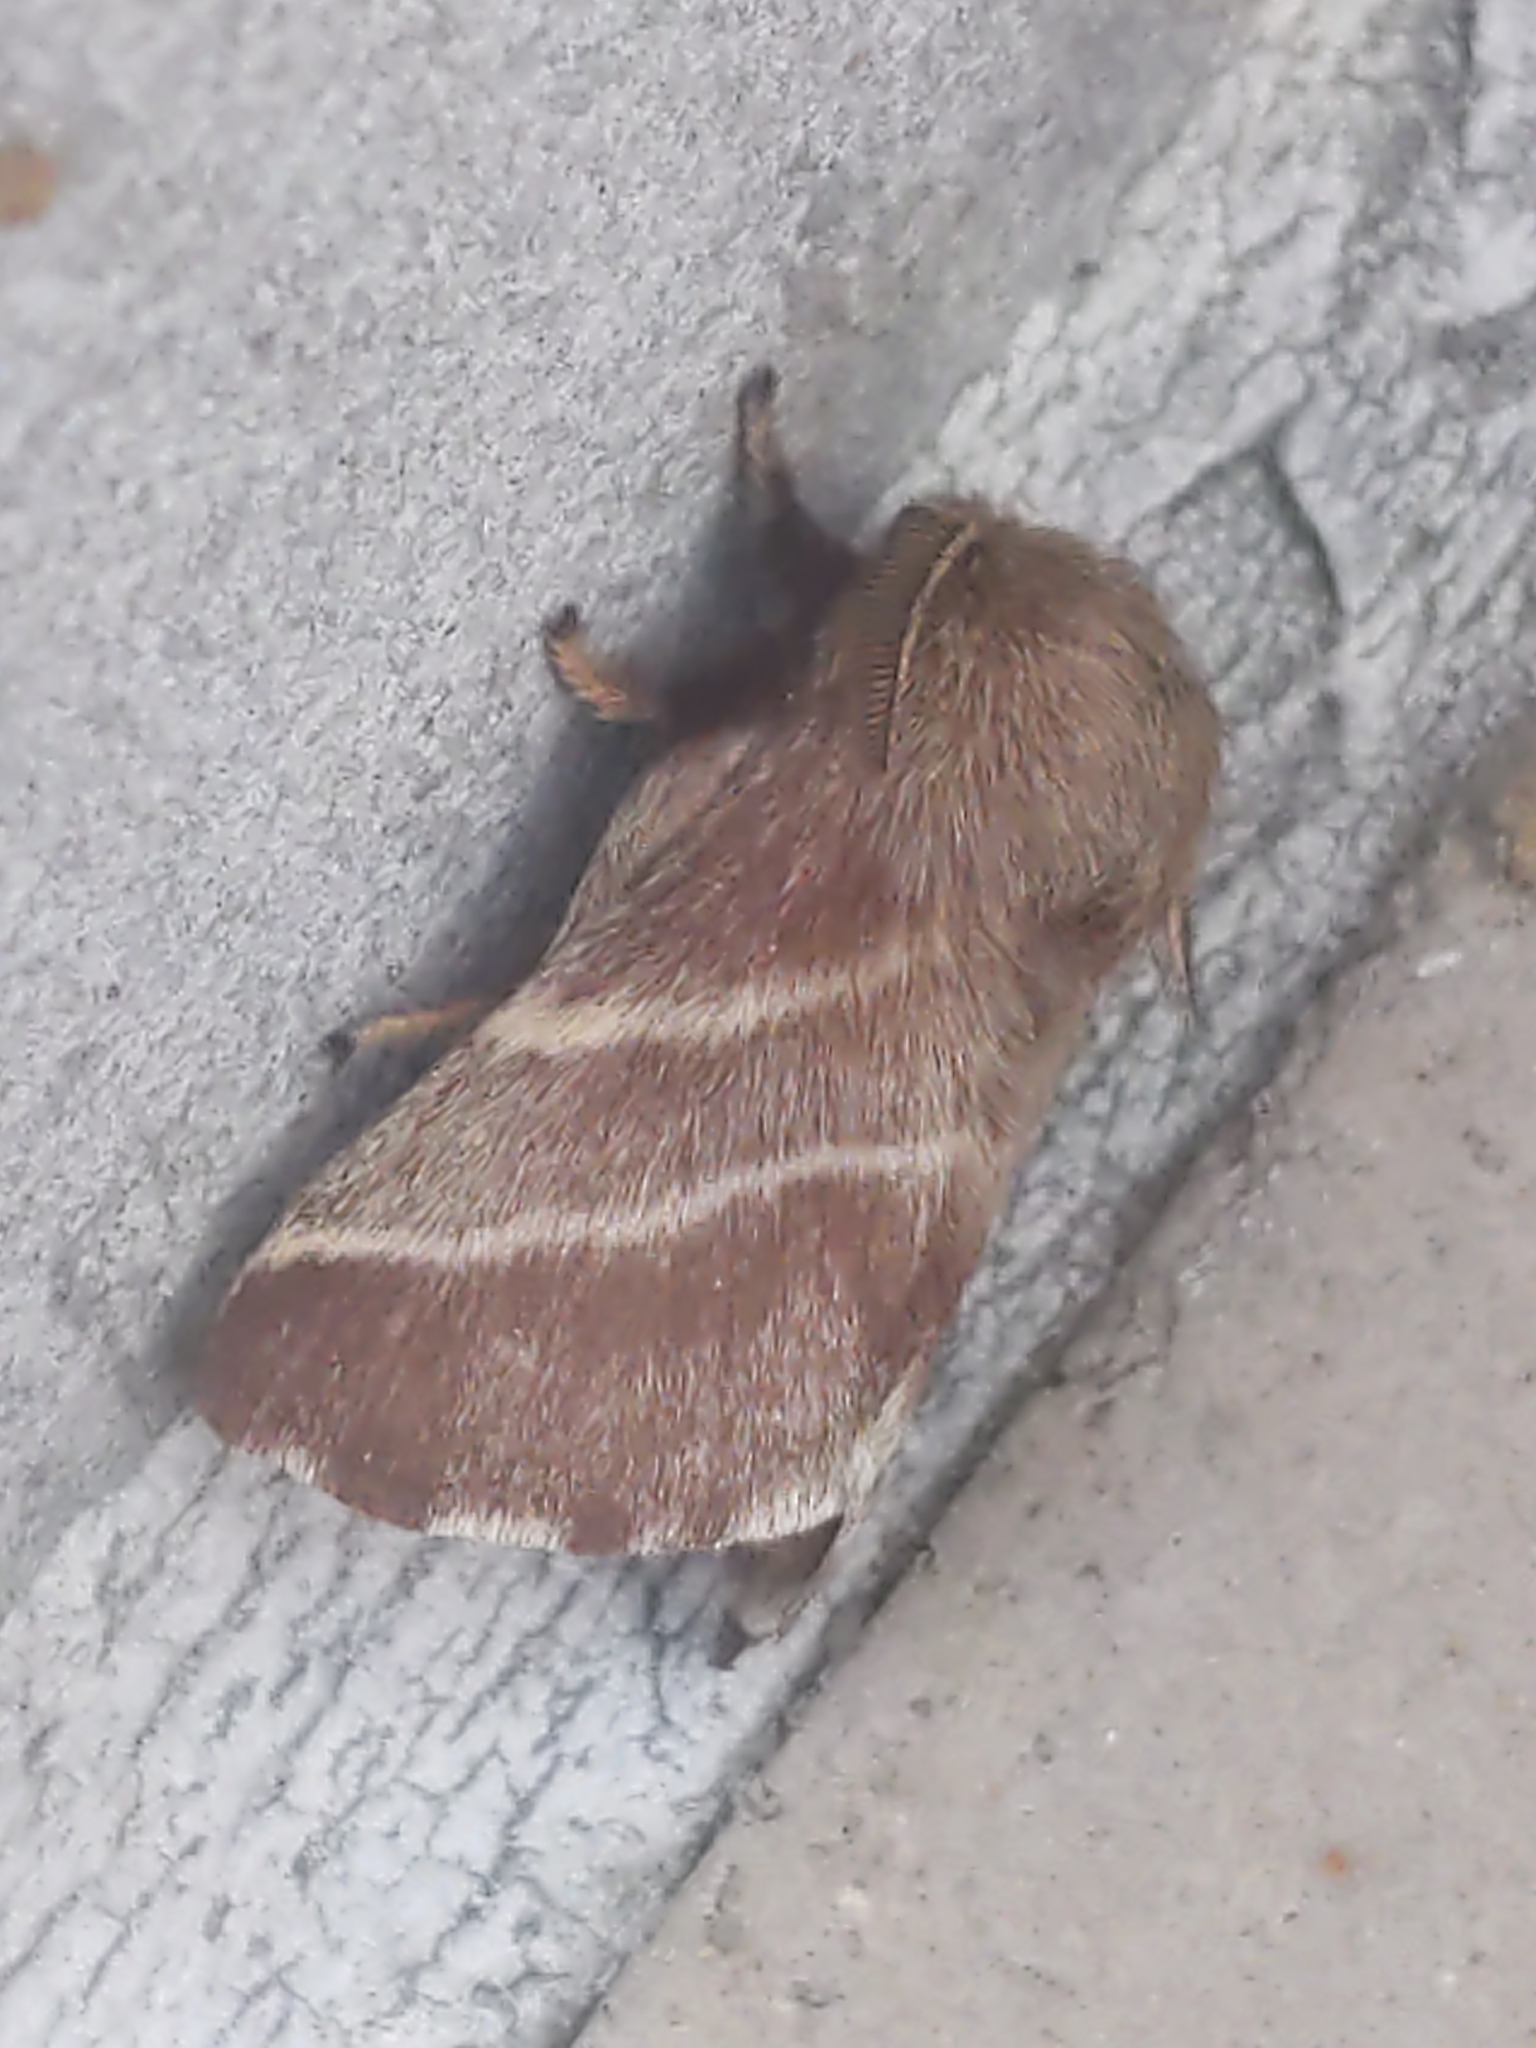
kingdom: Animalia
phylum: Arthropoda
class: Insecta
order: Lepidoptera
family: Lasiocampidae
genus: Malacosoma
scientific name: Malacosoma americana
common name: Eastern tent caterpillar moth
